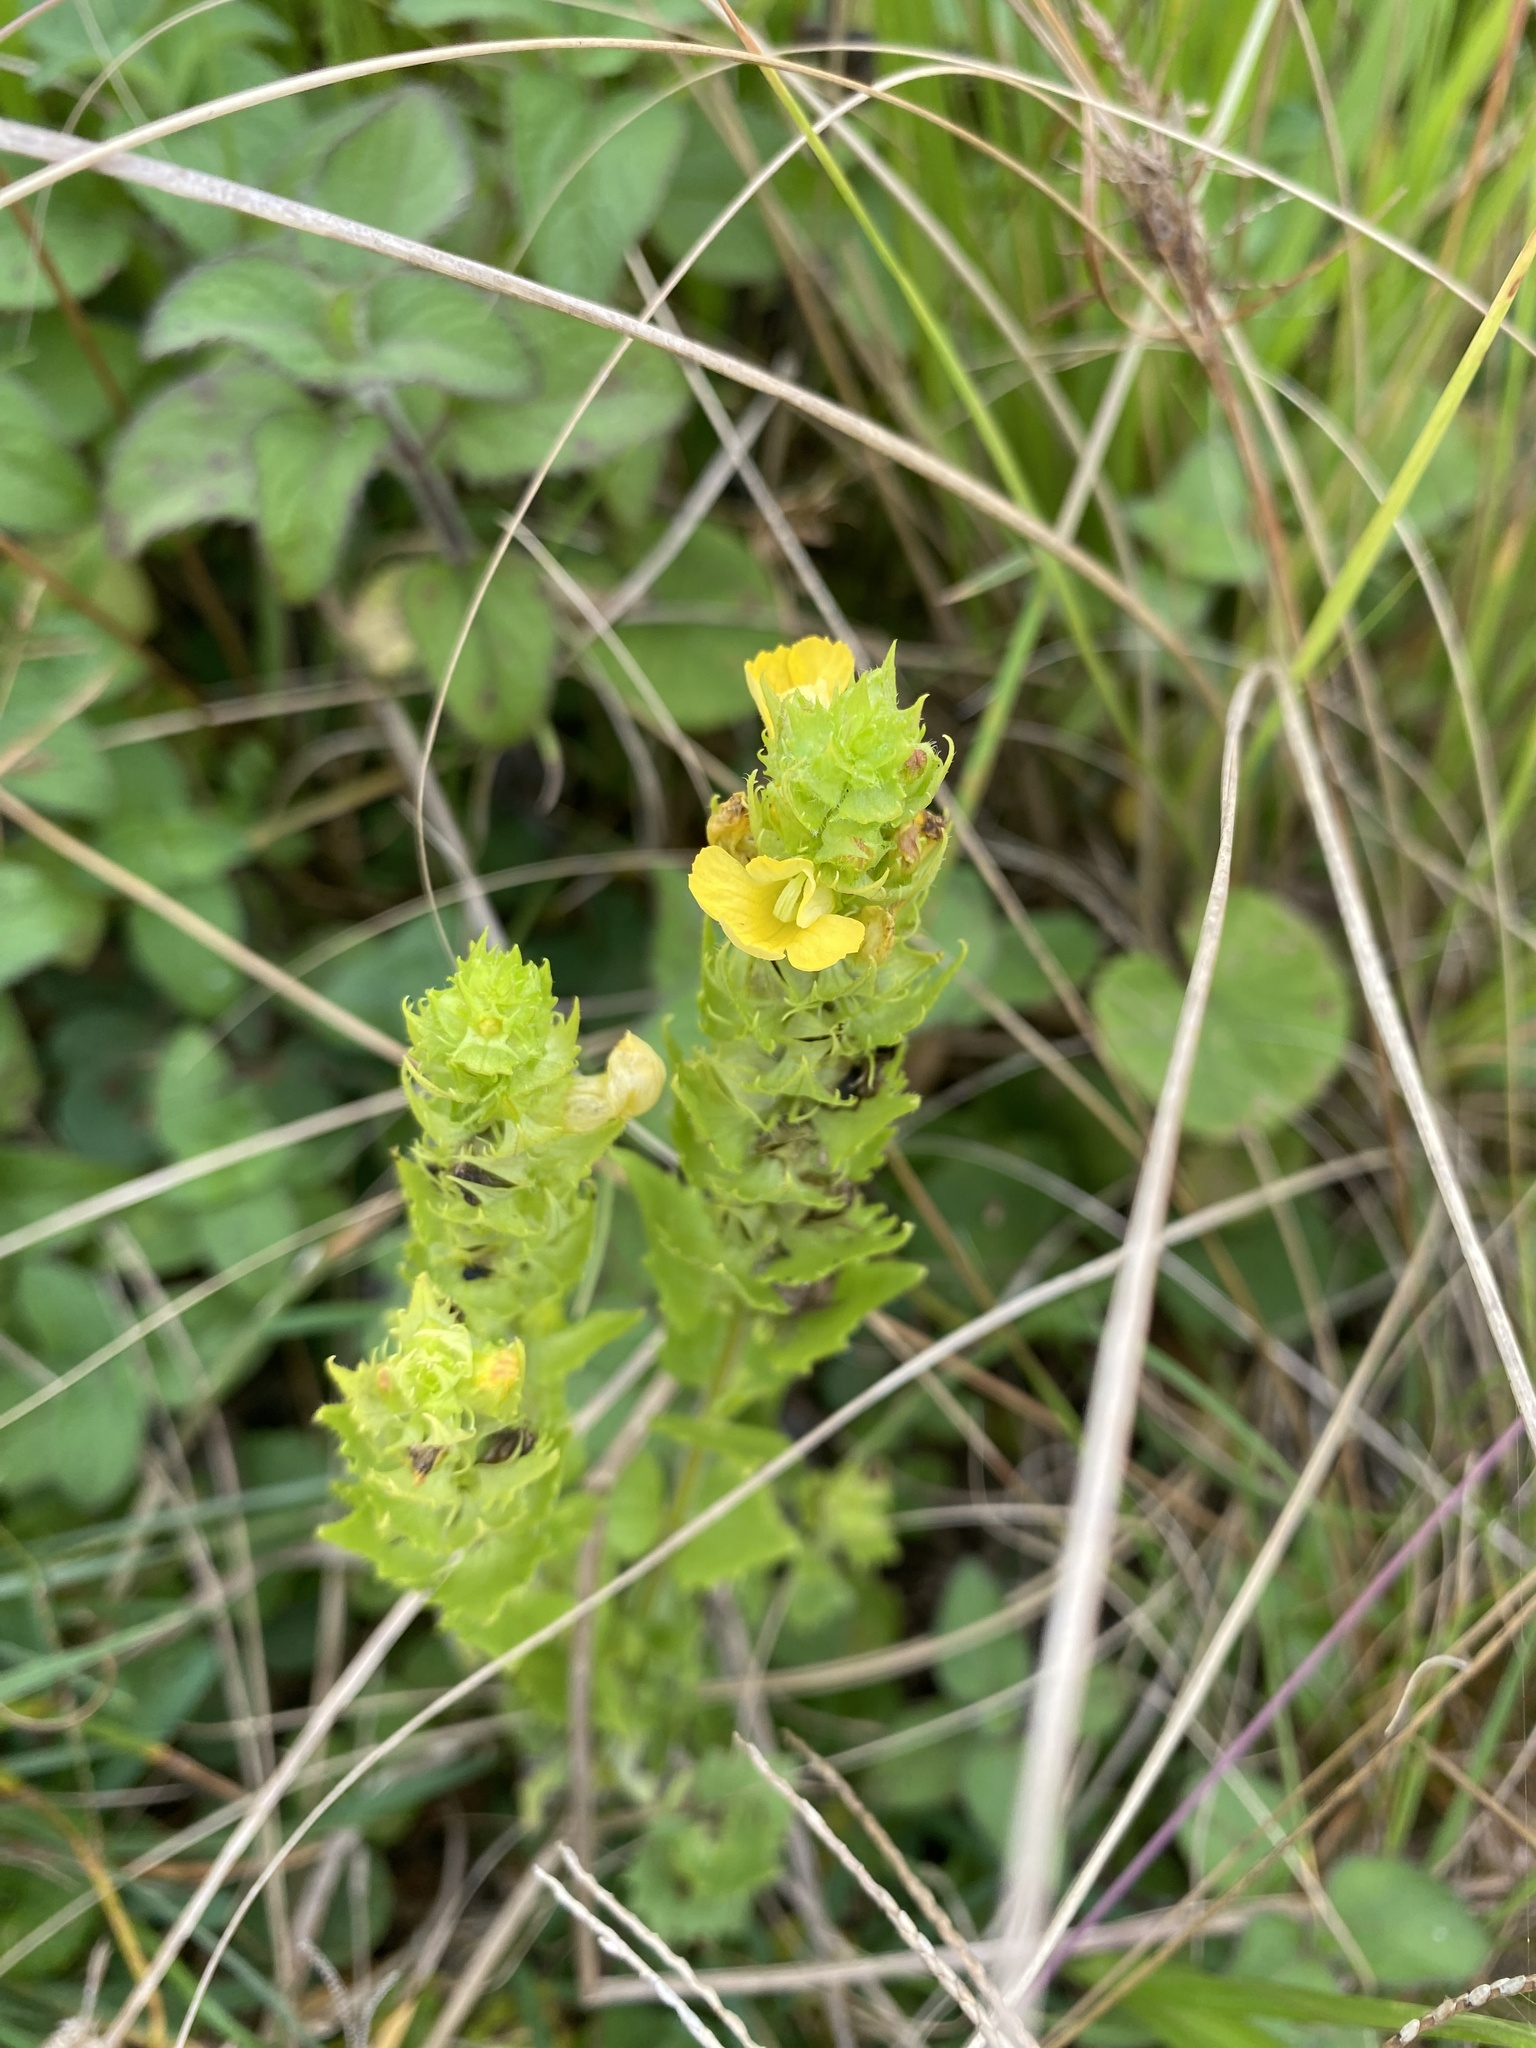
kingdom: Plantae
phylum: Tracheophyta
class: Magnoliopsida
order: Lamiales
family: Orobanchaceae
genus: Alectra
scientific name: Alectra sessiliflora
